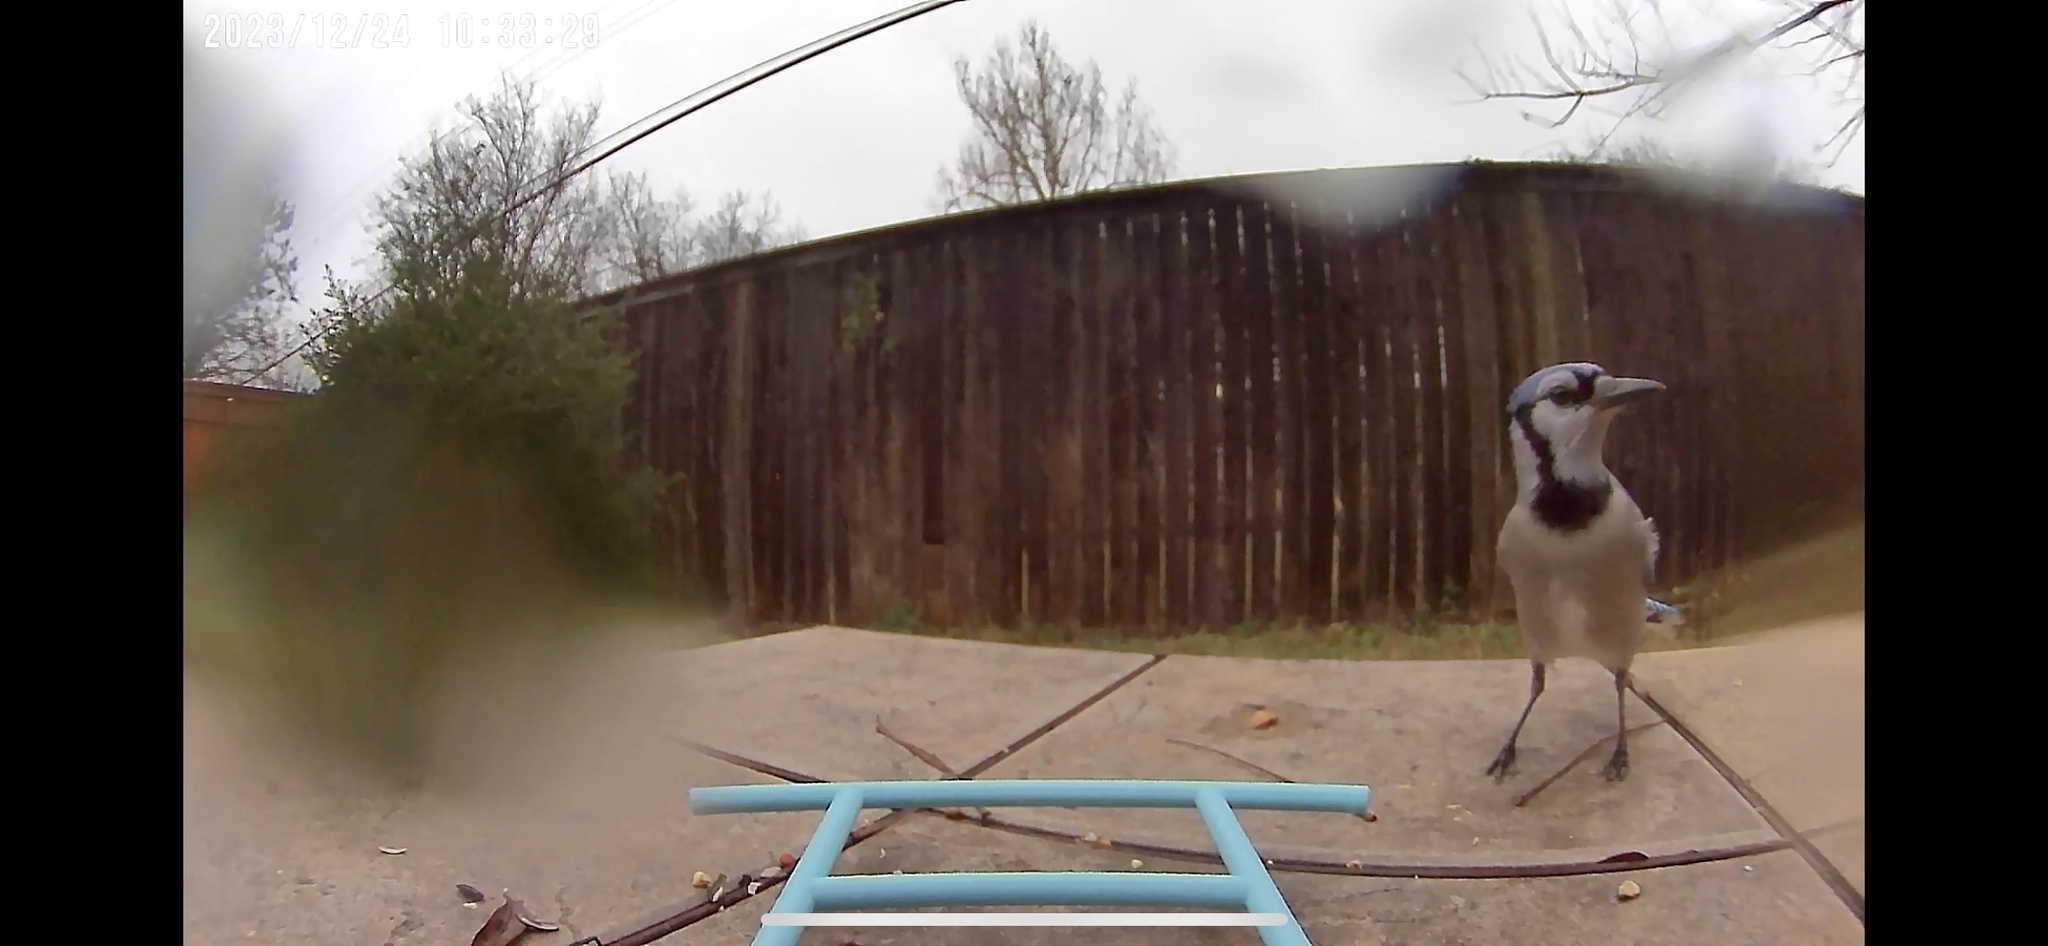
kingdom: Animalia
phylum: Chordata
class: Aves
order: Passeriformes
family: Corvidae
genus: Cyanocitta
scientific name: Cyanocitta cristata
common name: Blue jay
